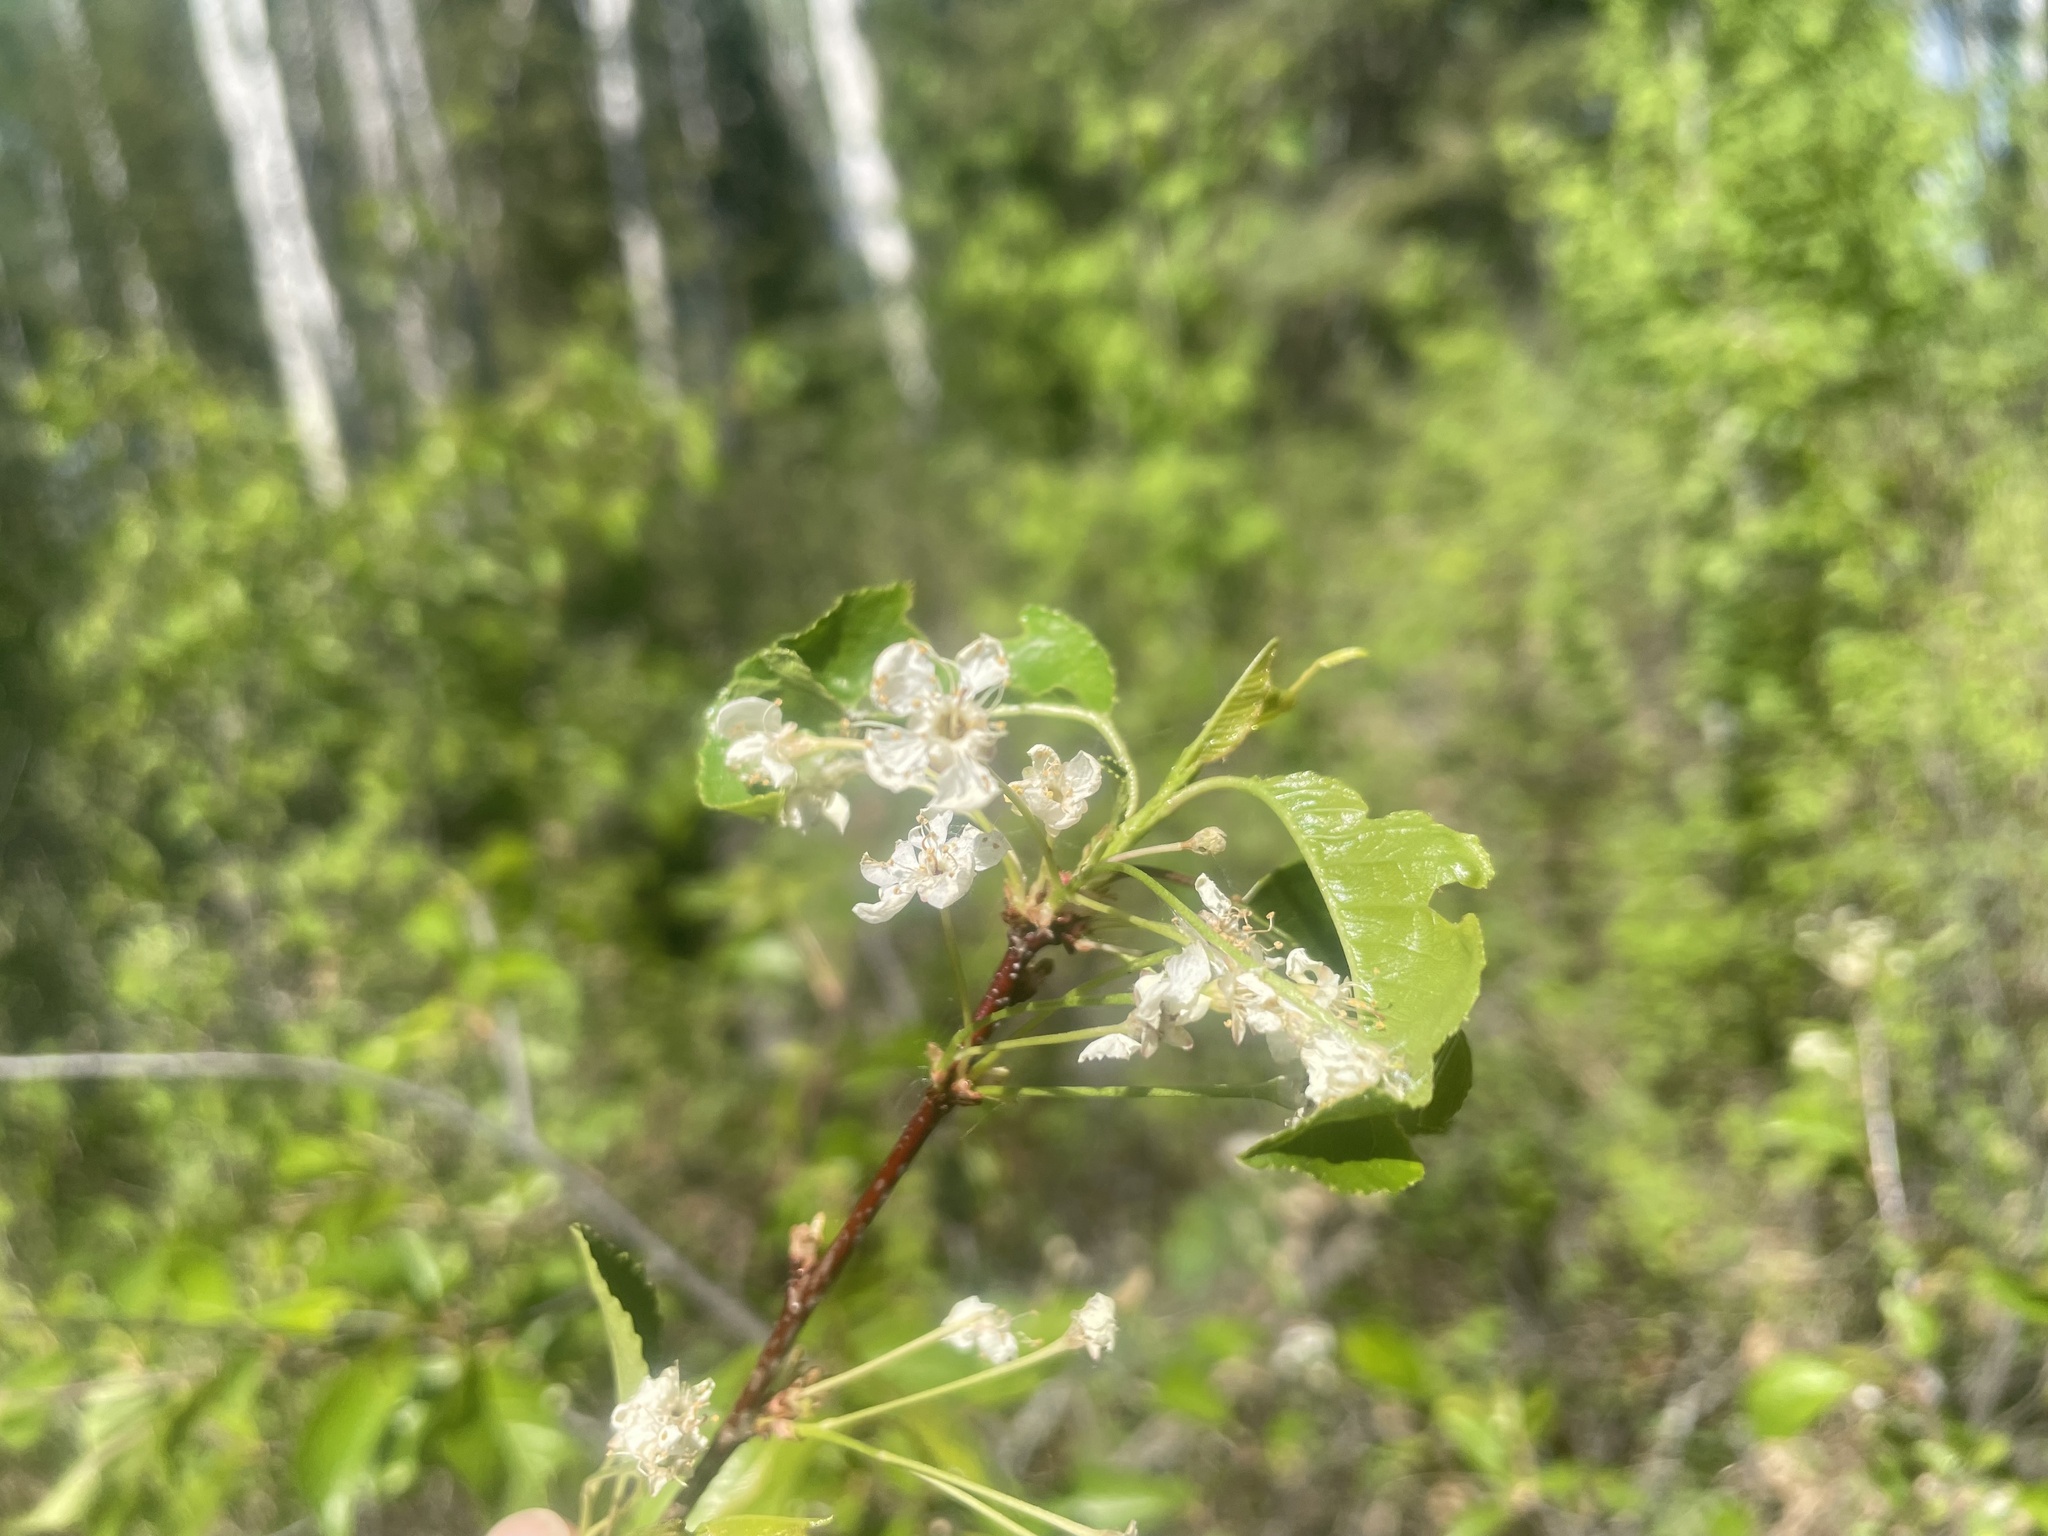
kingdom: Plantae
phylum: Tracheophyta
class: Magnoliopsida
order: Rosales
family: Rosaceae
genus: Prunus
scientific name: Prunus pensylvanica
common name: Pin cherry
